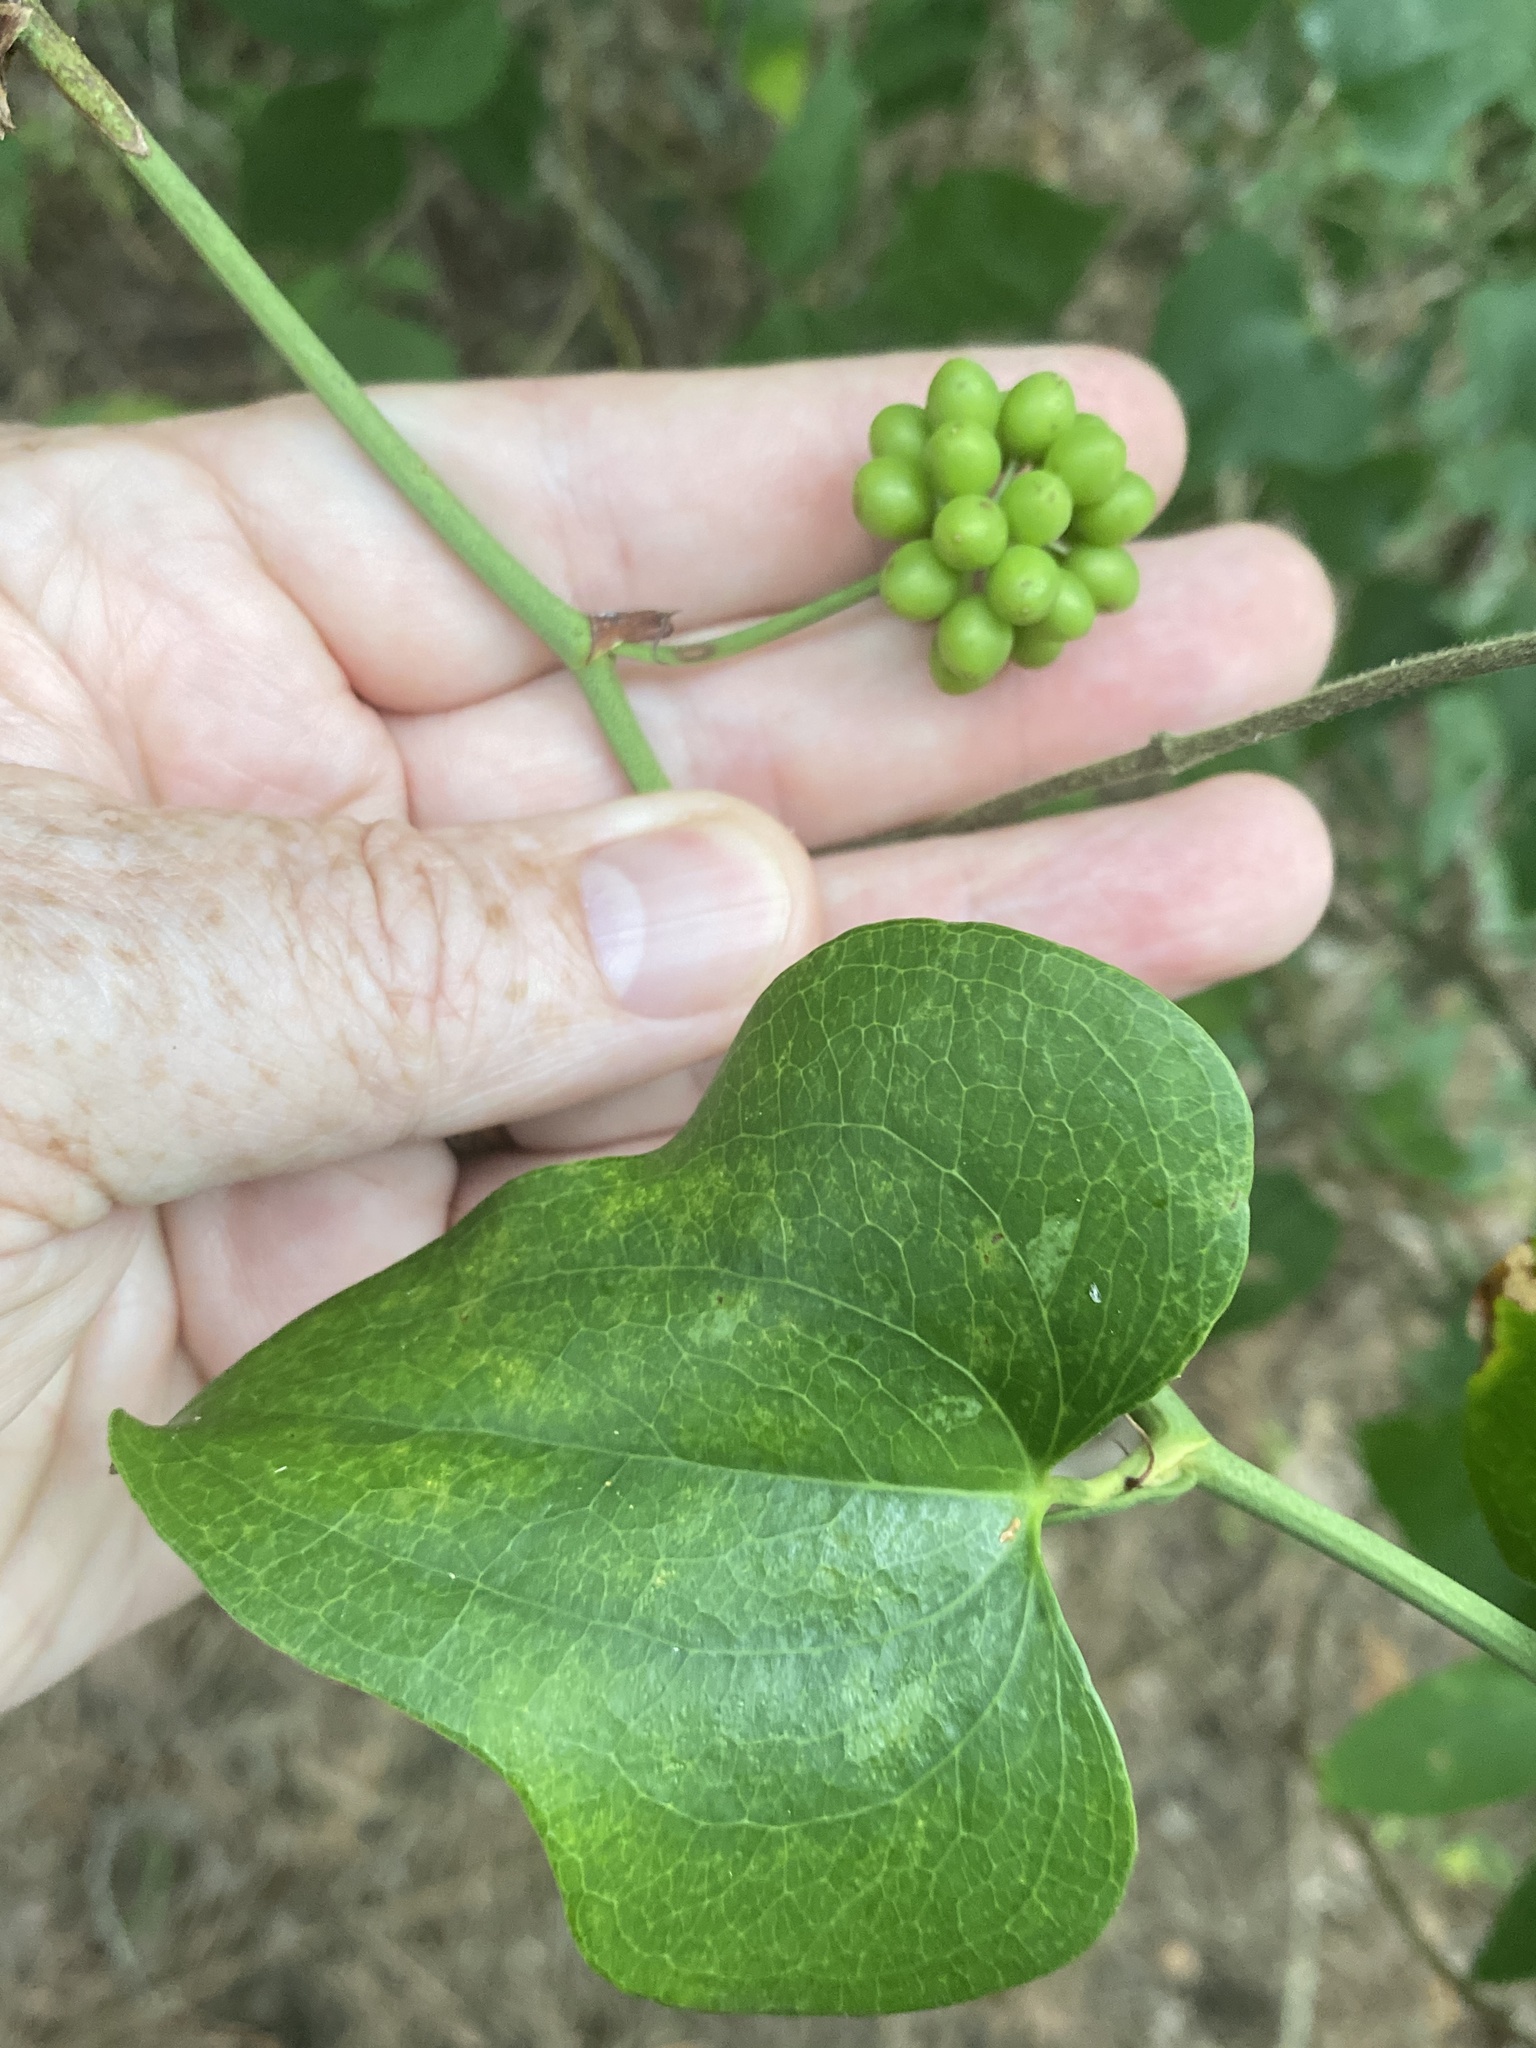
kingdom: Plantae
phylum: Tracheophyta
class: Liliopsida
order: Liliales
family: Smilacaceae
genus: Smilax
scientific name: Smilax bona-nox
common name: Catbrier
